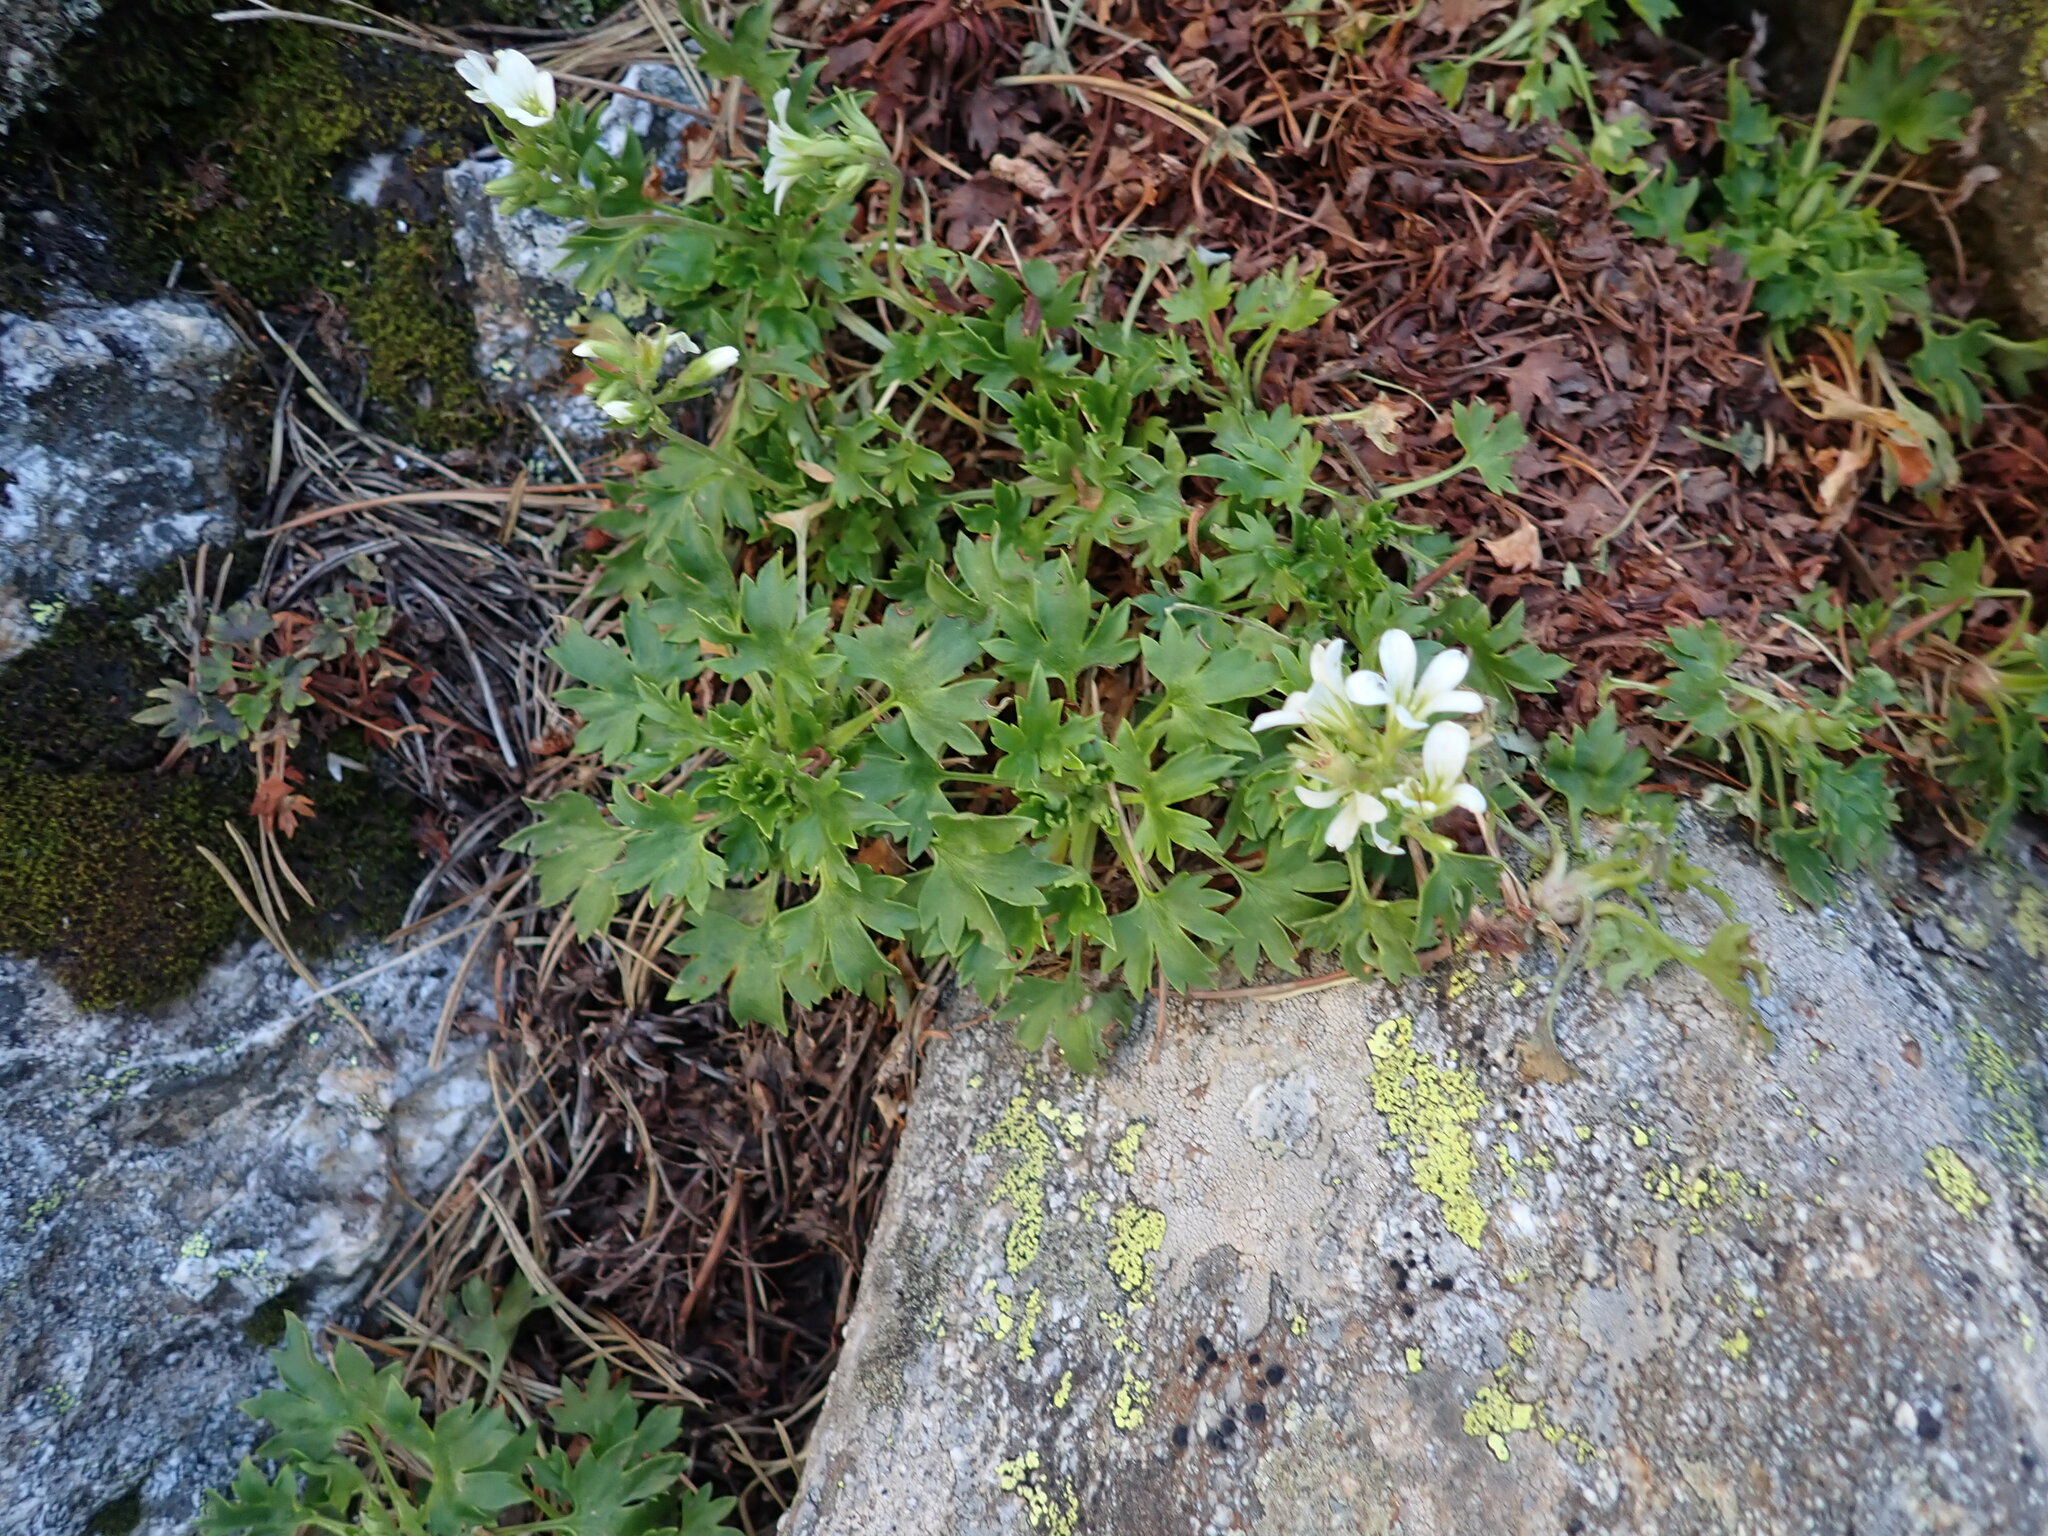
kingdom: Plantae
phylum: Tracheophyta
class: Magnoliopsida
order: Saxifragales
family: Saxifragaceae
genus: Saxifraga
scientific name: Saxifraga geranioides
